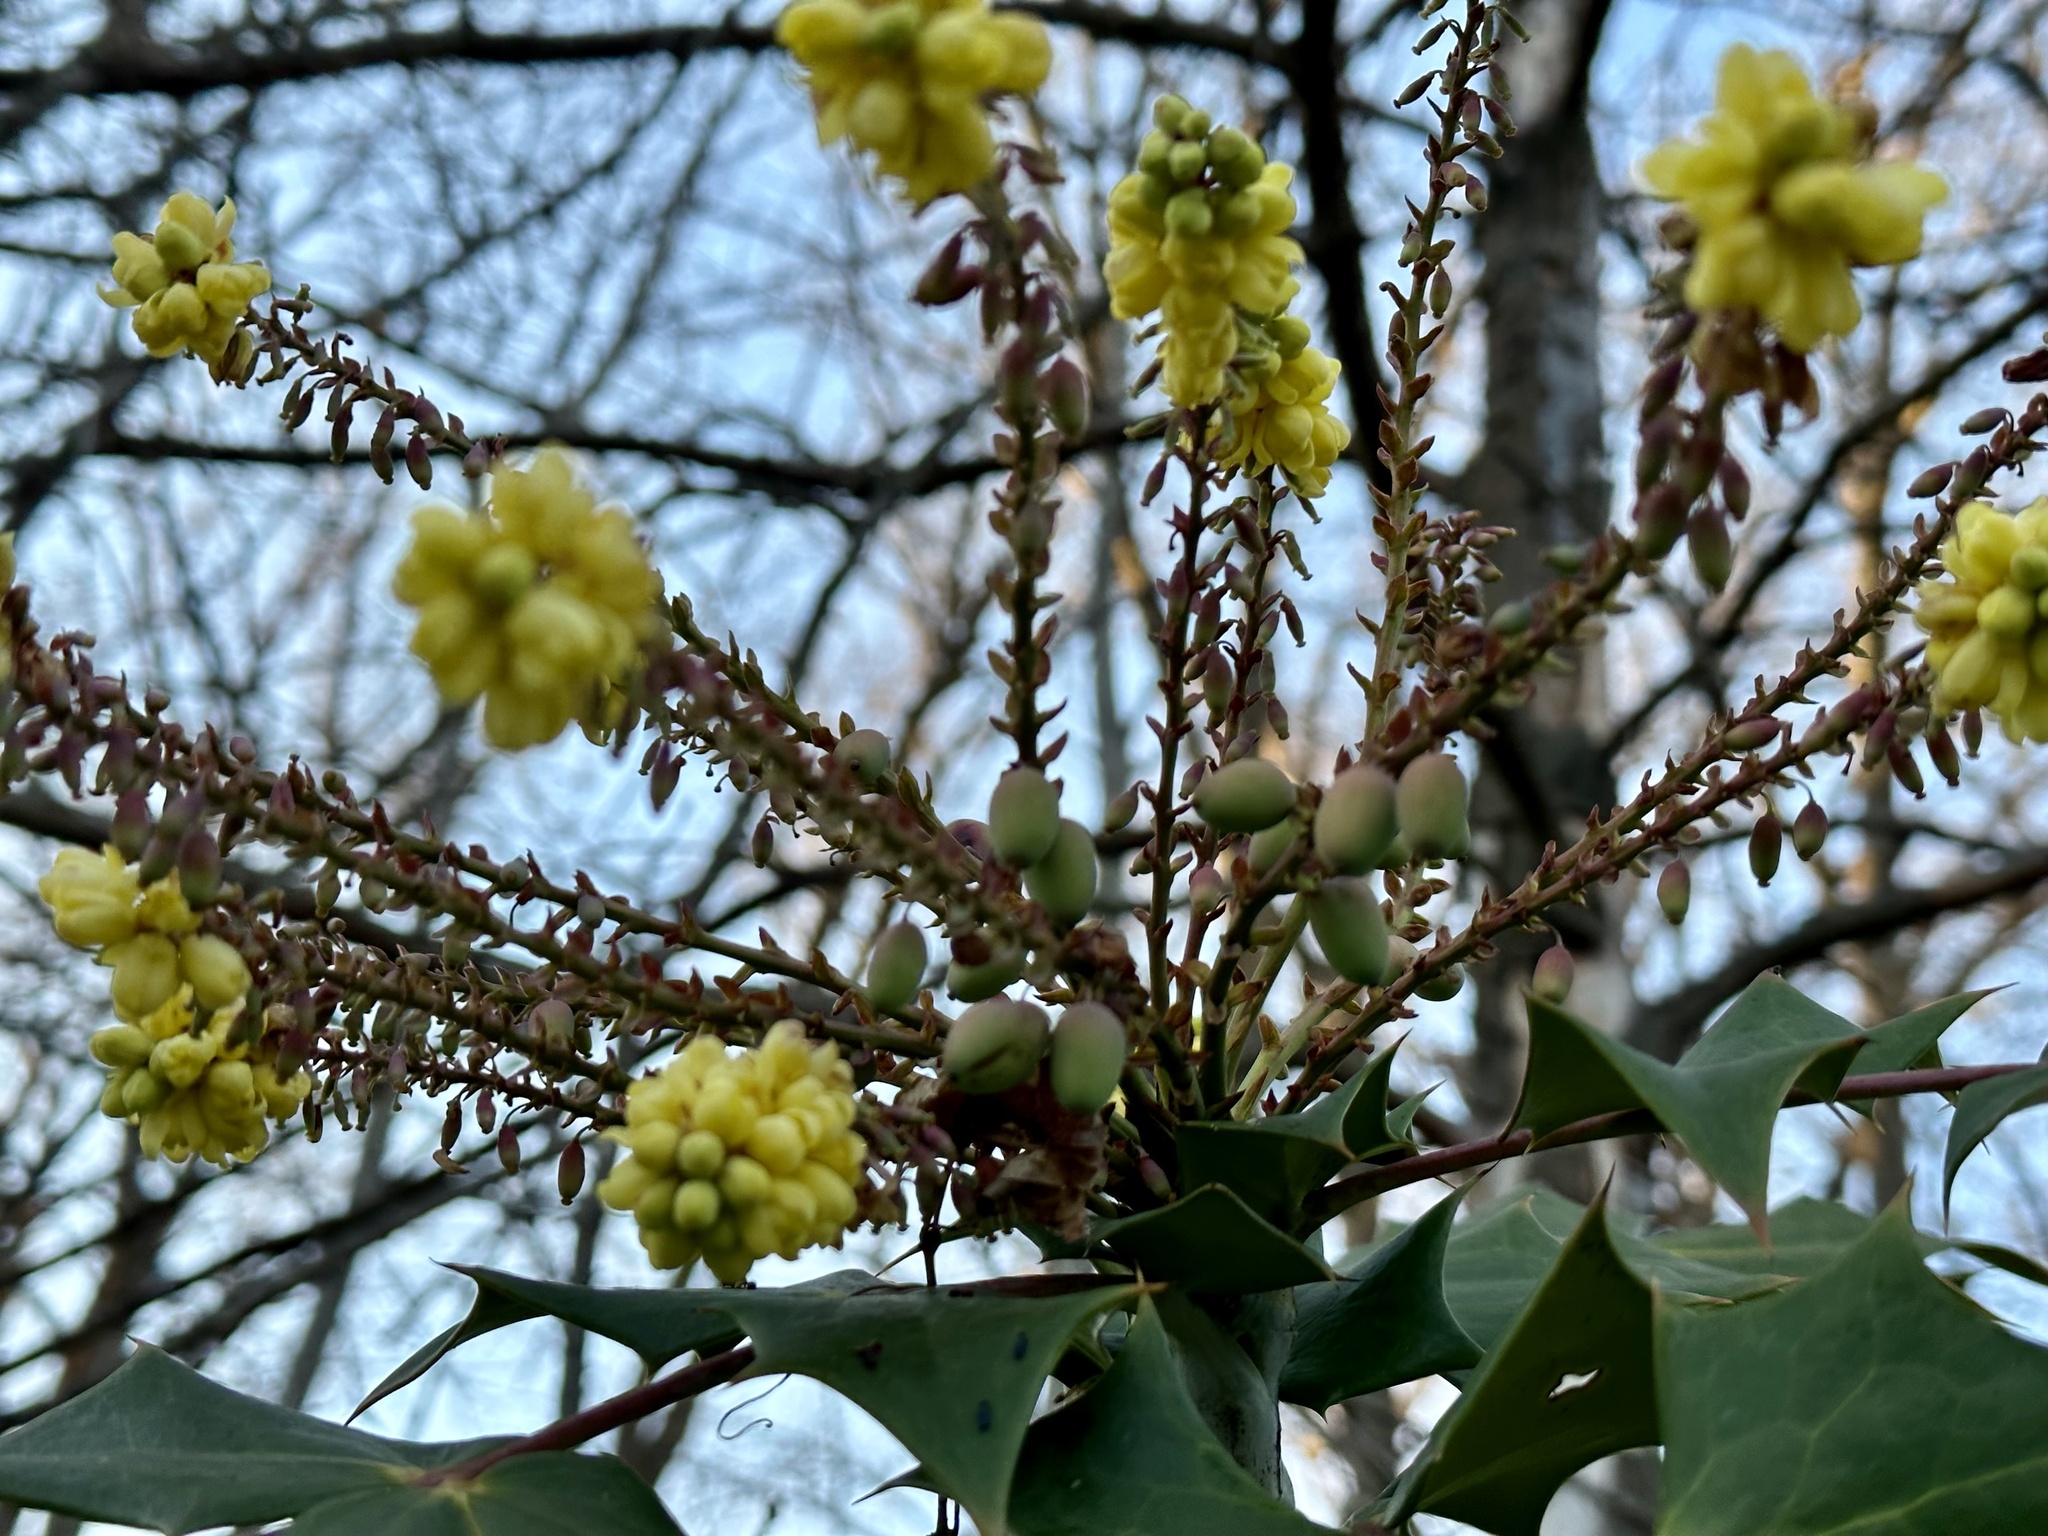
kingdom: Plantae
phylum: Tracheophyta
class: Magnoliopsida
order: Ranunculales
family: Berberidaceae
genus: Mahonia
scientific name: Mahonia bealei
